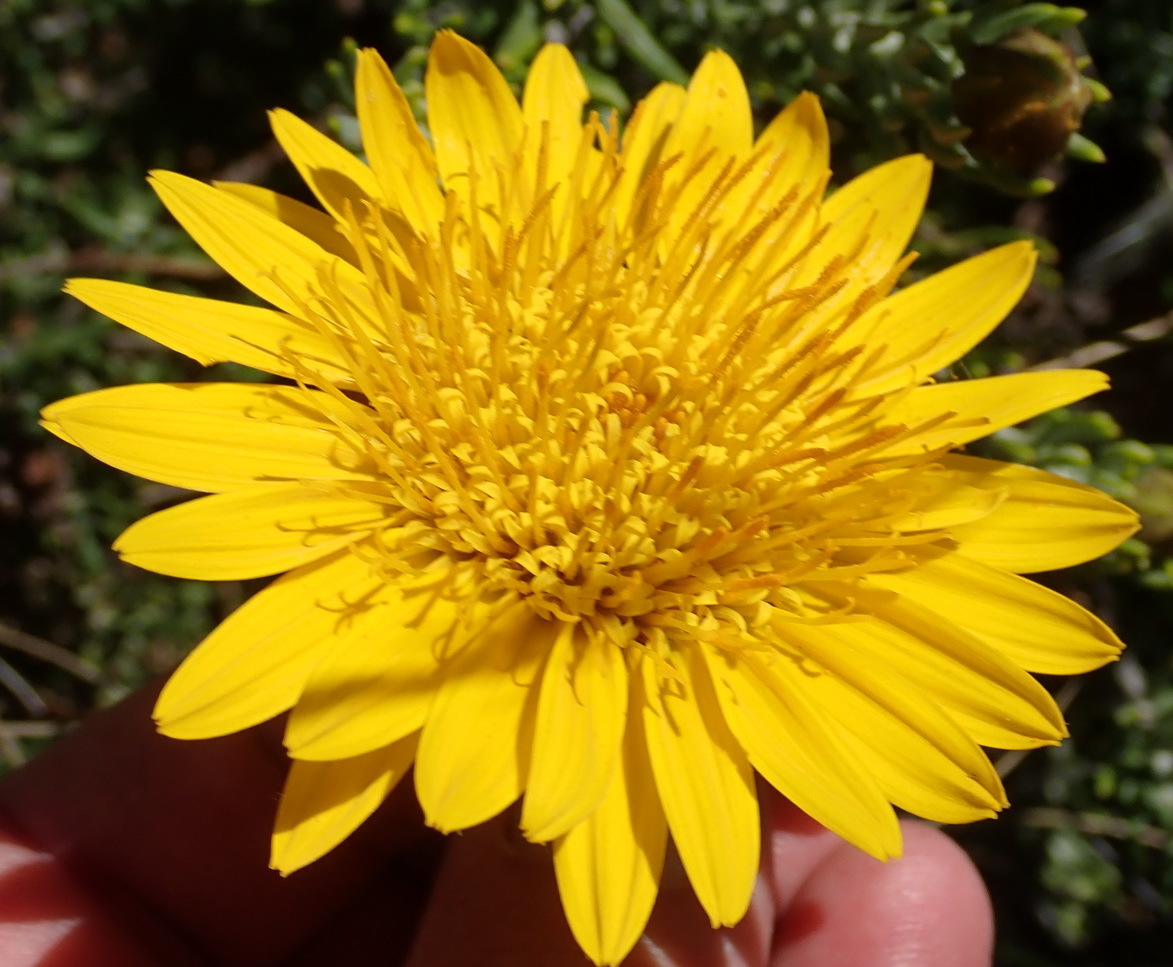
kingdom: Plantae
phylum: Tracheophyta
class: Magnoliopsida
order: Asterales
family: Asteraceae
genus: Heterolepis
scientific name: Heterolepis aliena
